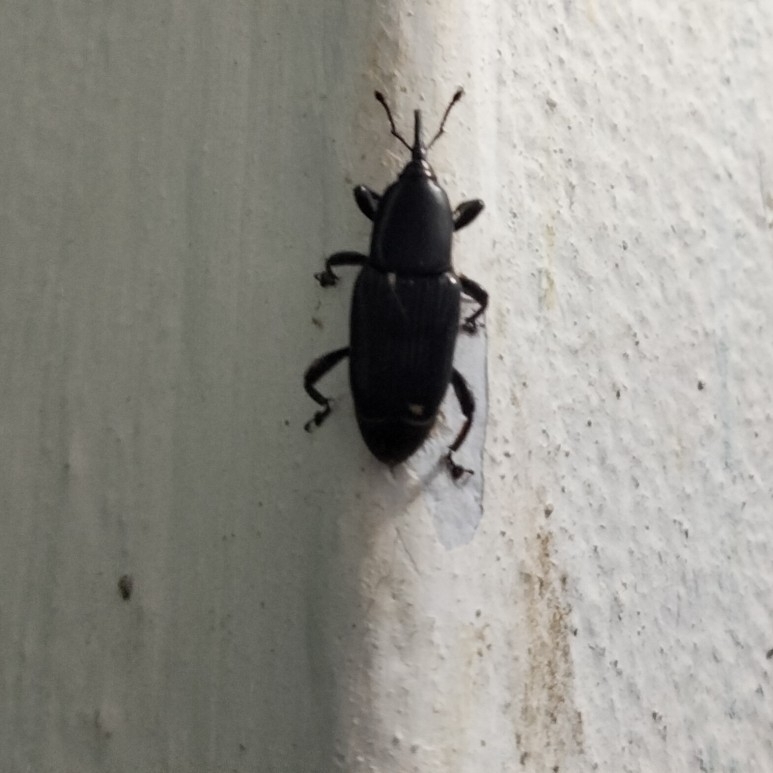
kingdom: Animalia
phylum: Arthropoda
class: Insecta
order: Coleoptera
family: Dryophthoridae
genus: Odoiporus
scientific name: Odoiporus longicollis
